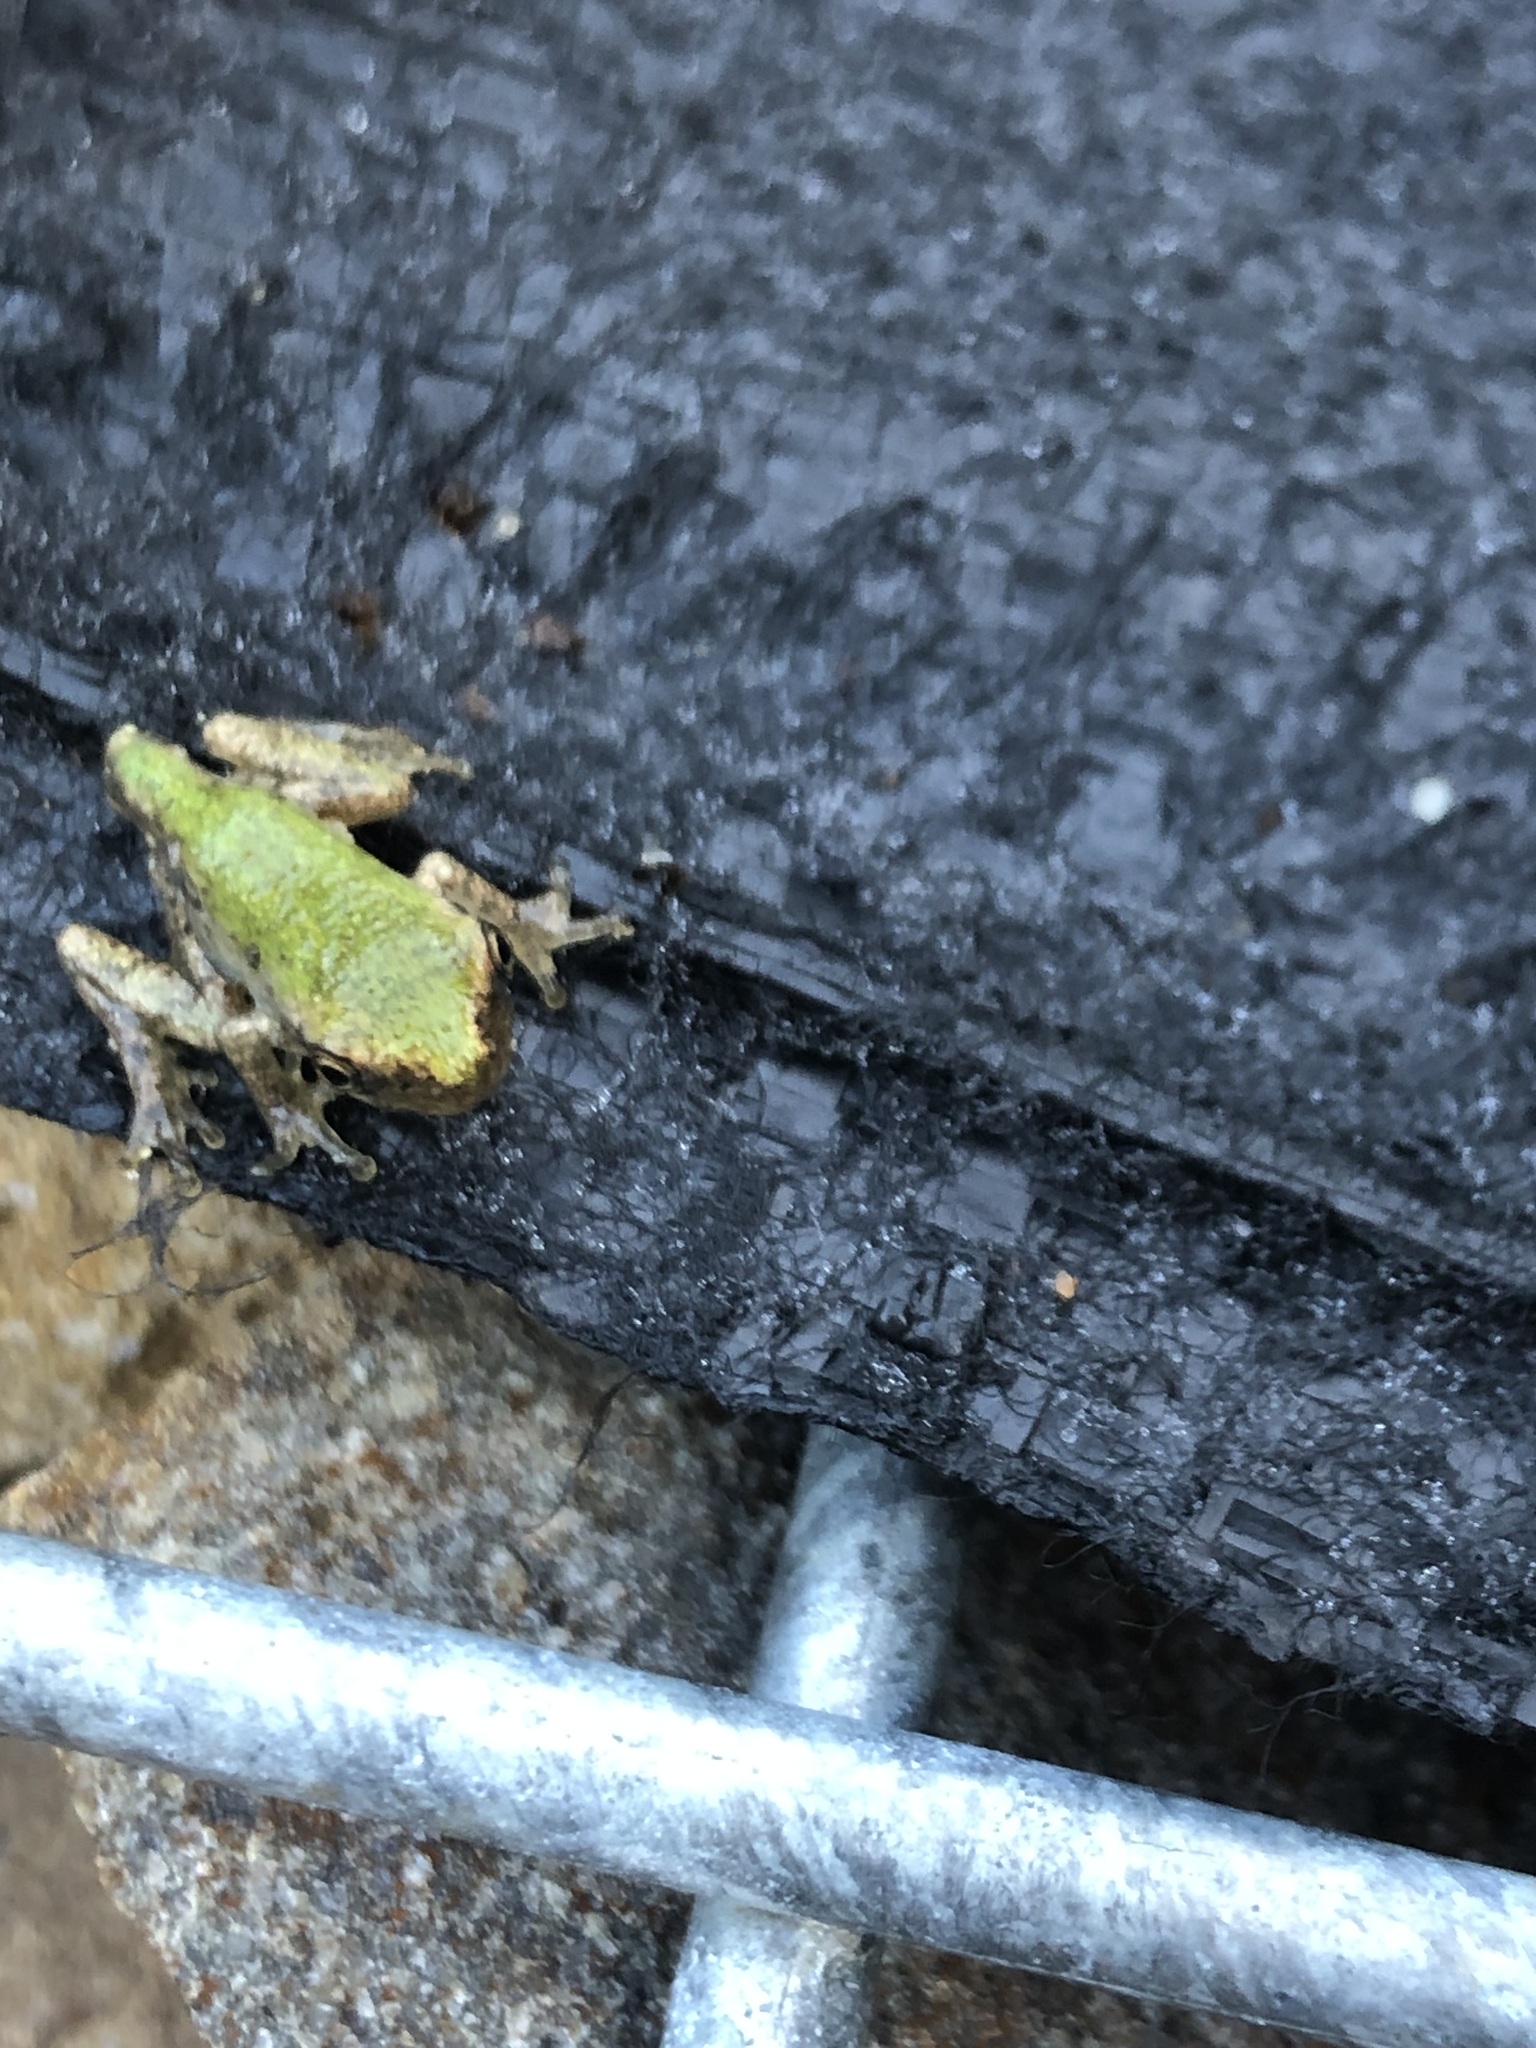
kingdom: Animalia
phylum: Chordata
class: Amphibia
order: Anura
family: Hylidae
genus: Dryophytes
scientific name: Dryophytes chrysoscelis
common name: Cope's gray treefrog
